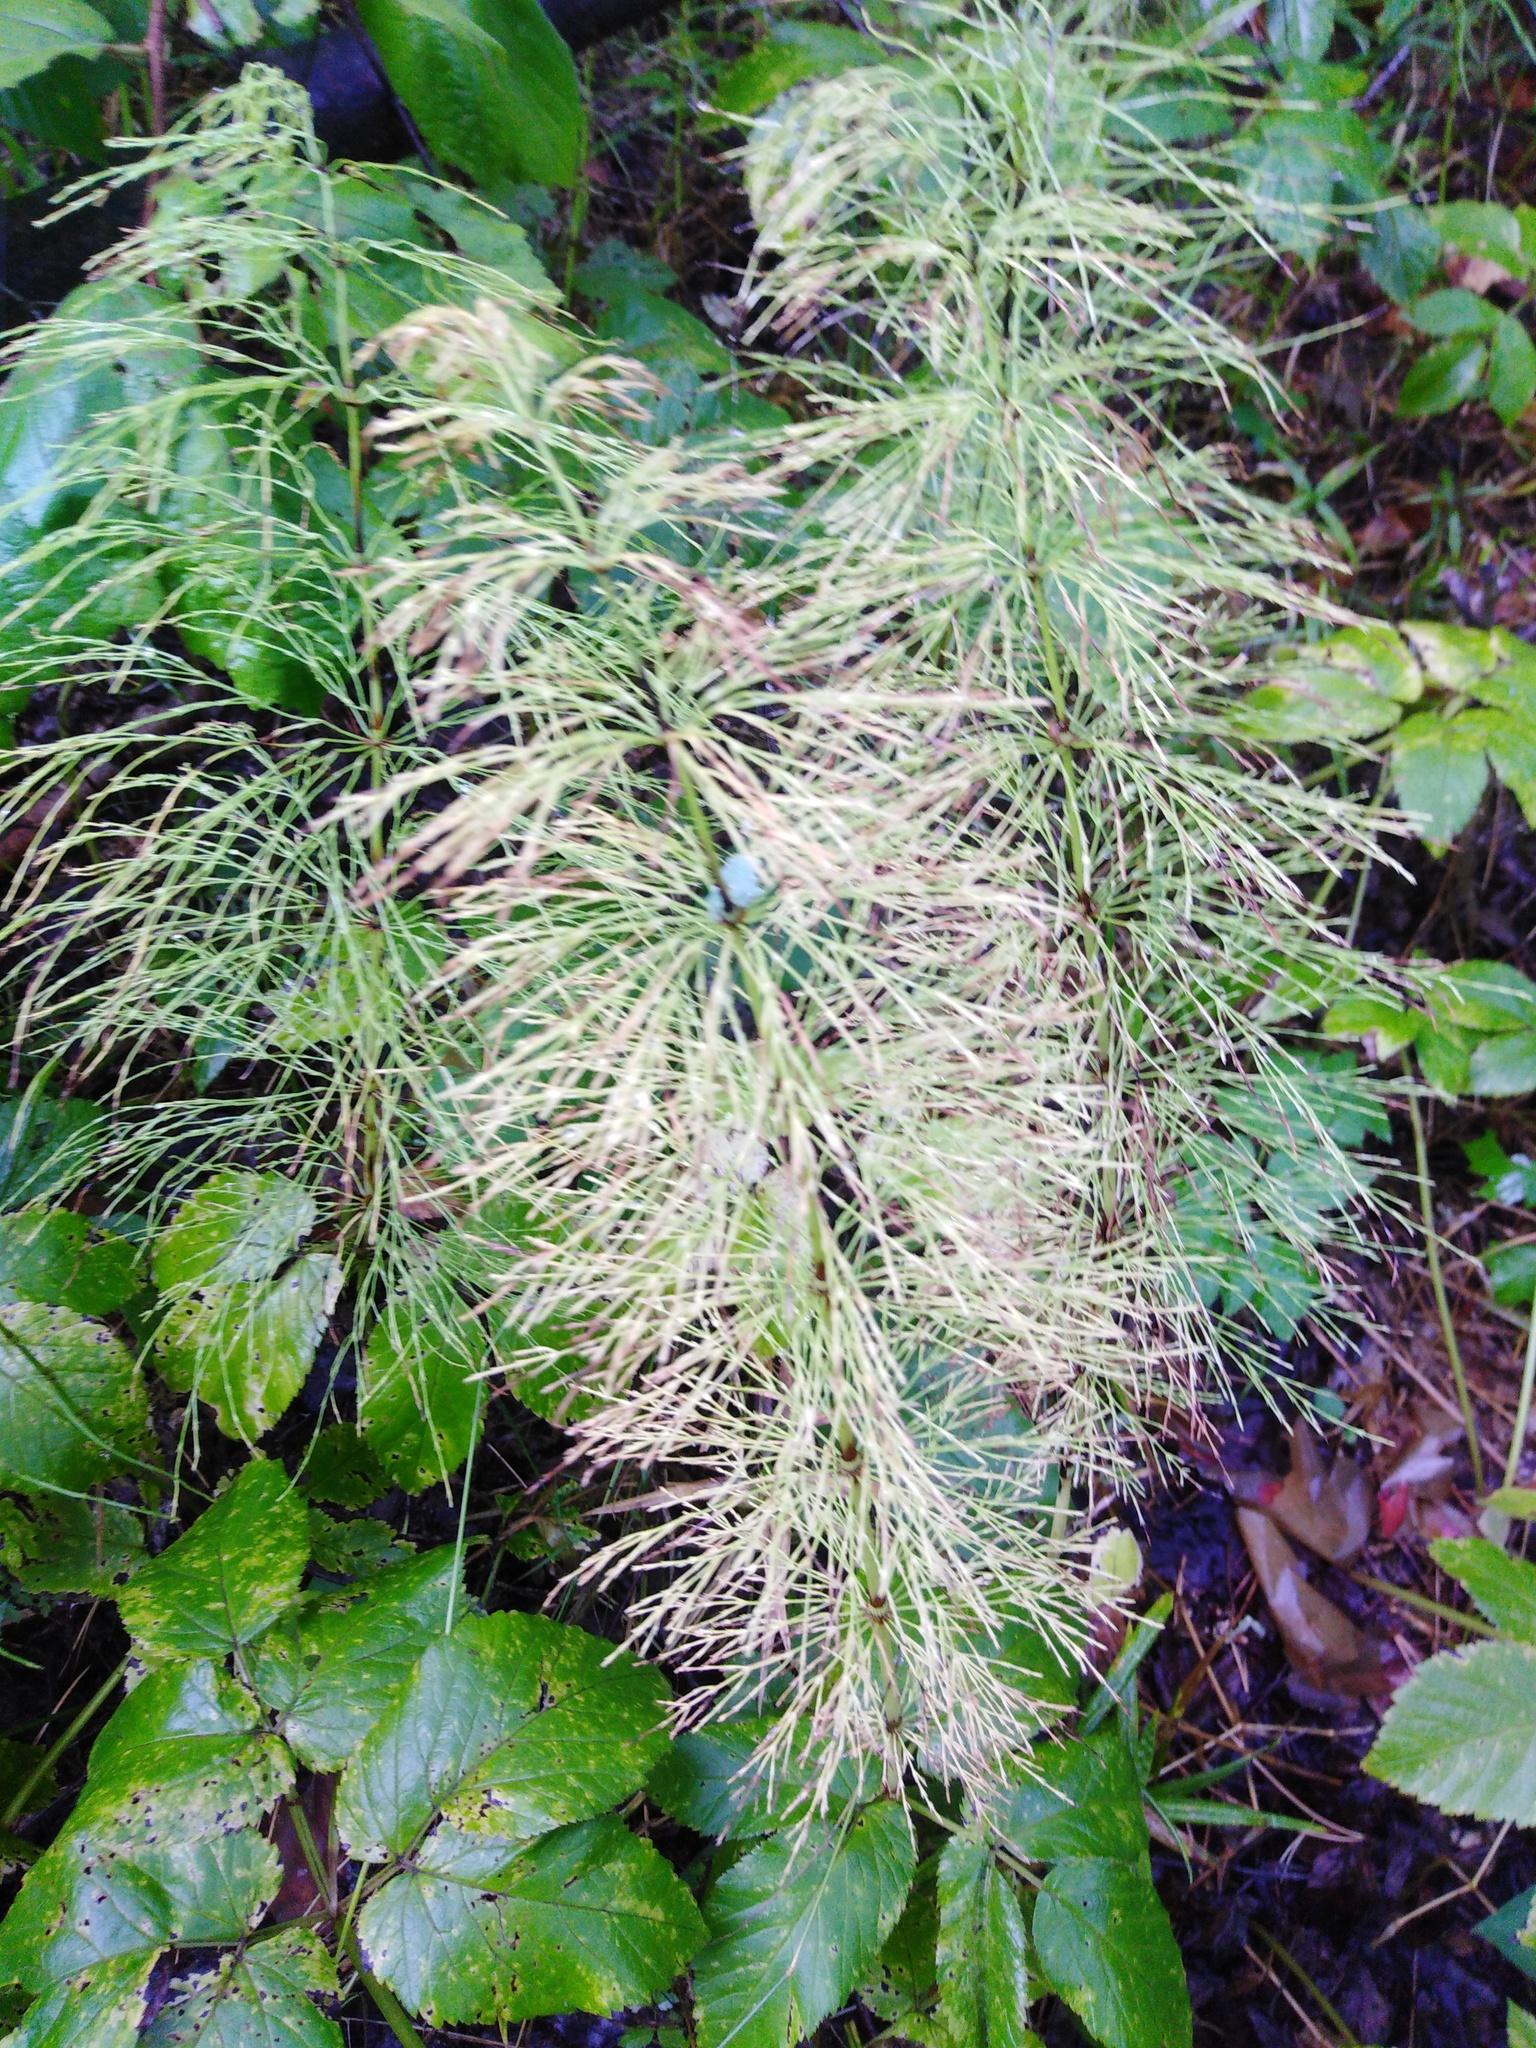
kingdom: Plantae
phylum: Tracheophyta
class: Polypodiopsida
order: Equisetales
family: Equisetaceae
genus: Equisetum
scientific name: Equisetum sylvaticum
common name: Wood horsetail
